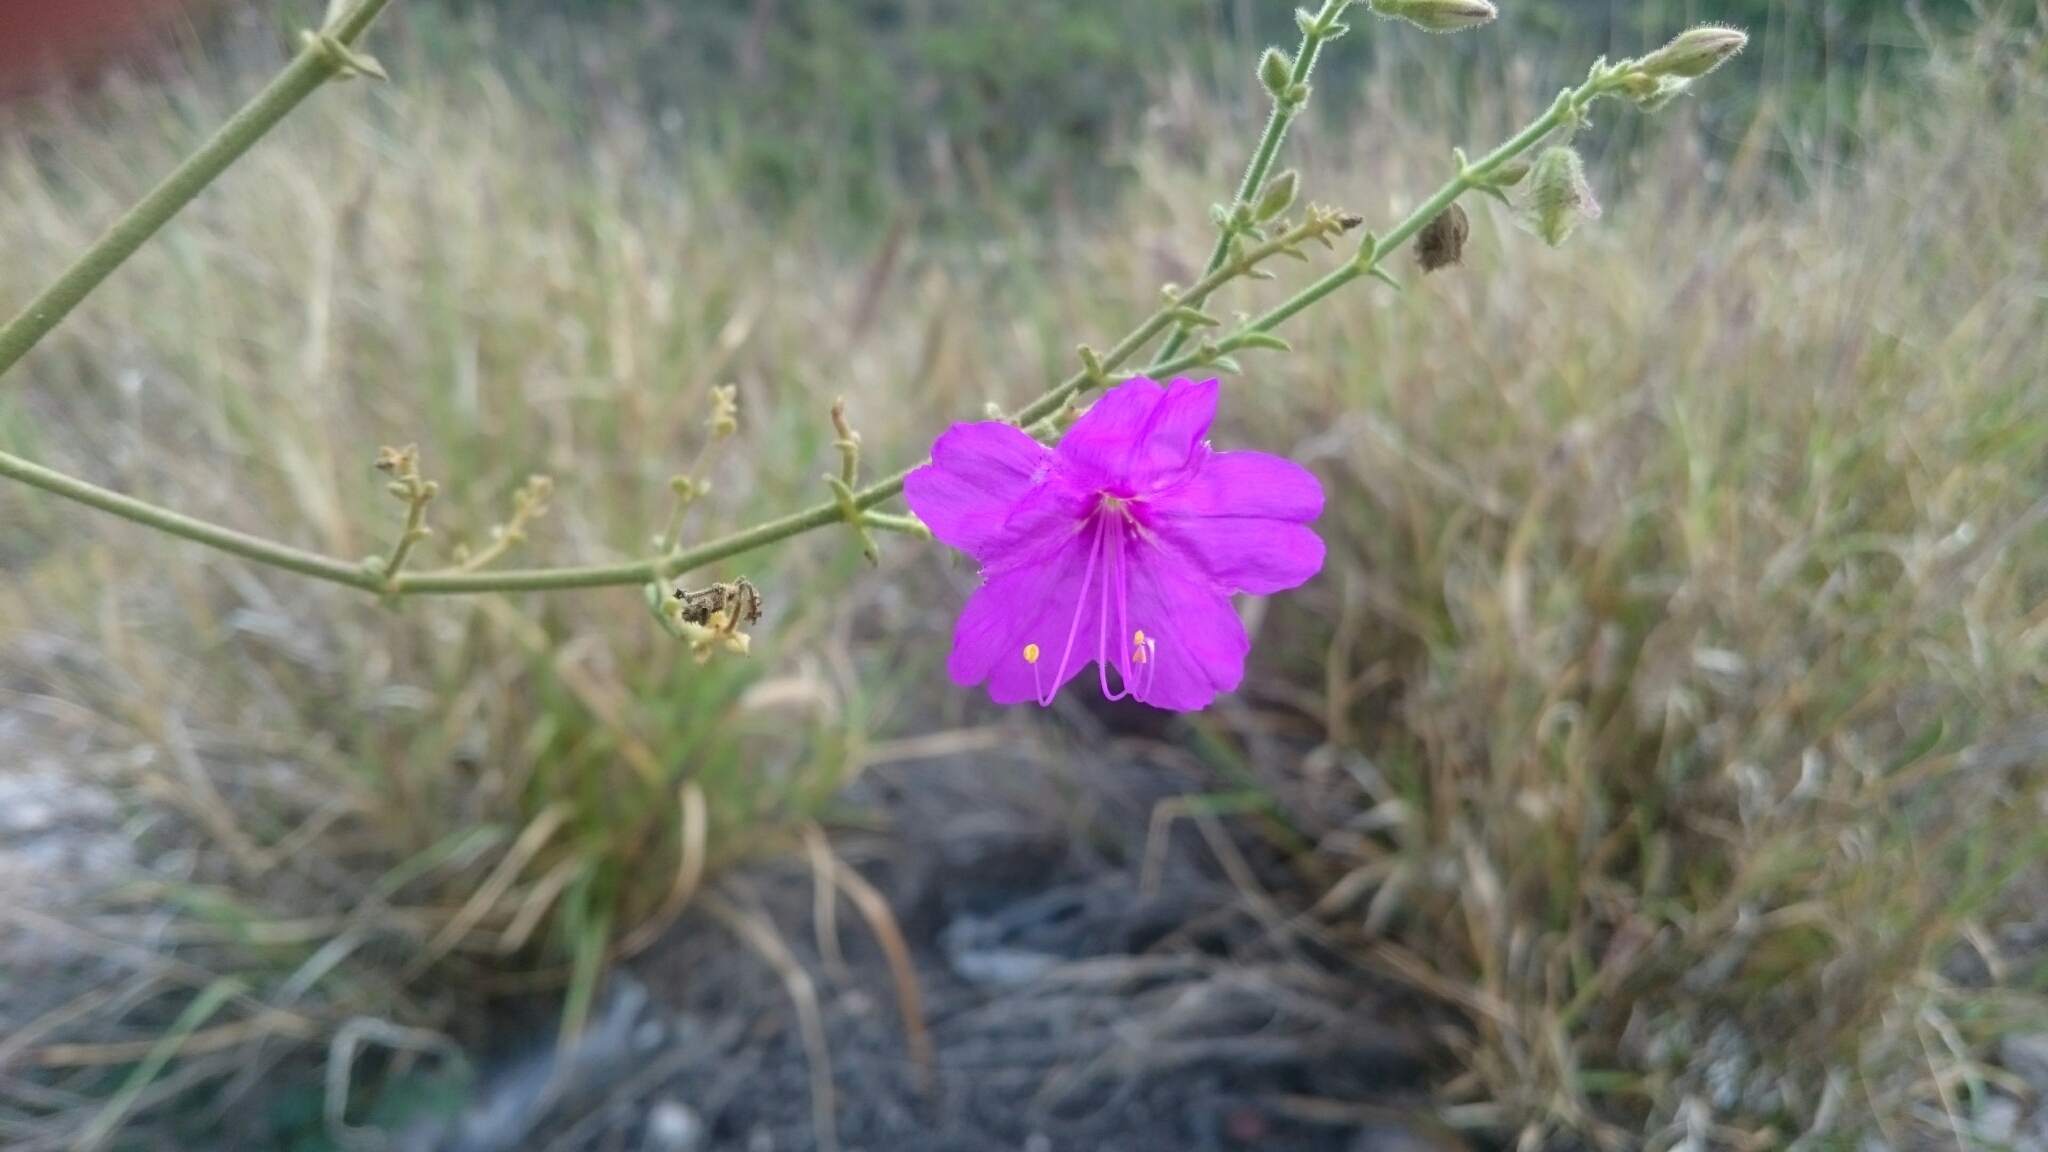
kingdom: Plantae
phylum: Tracheophyta
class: Magnoliopsida
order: Caryophyllales
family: Nyctaginaceae
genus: Mirabilis
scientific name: Mirabilis viscosa
